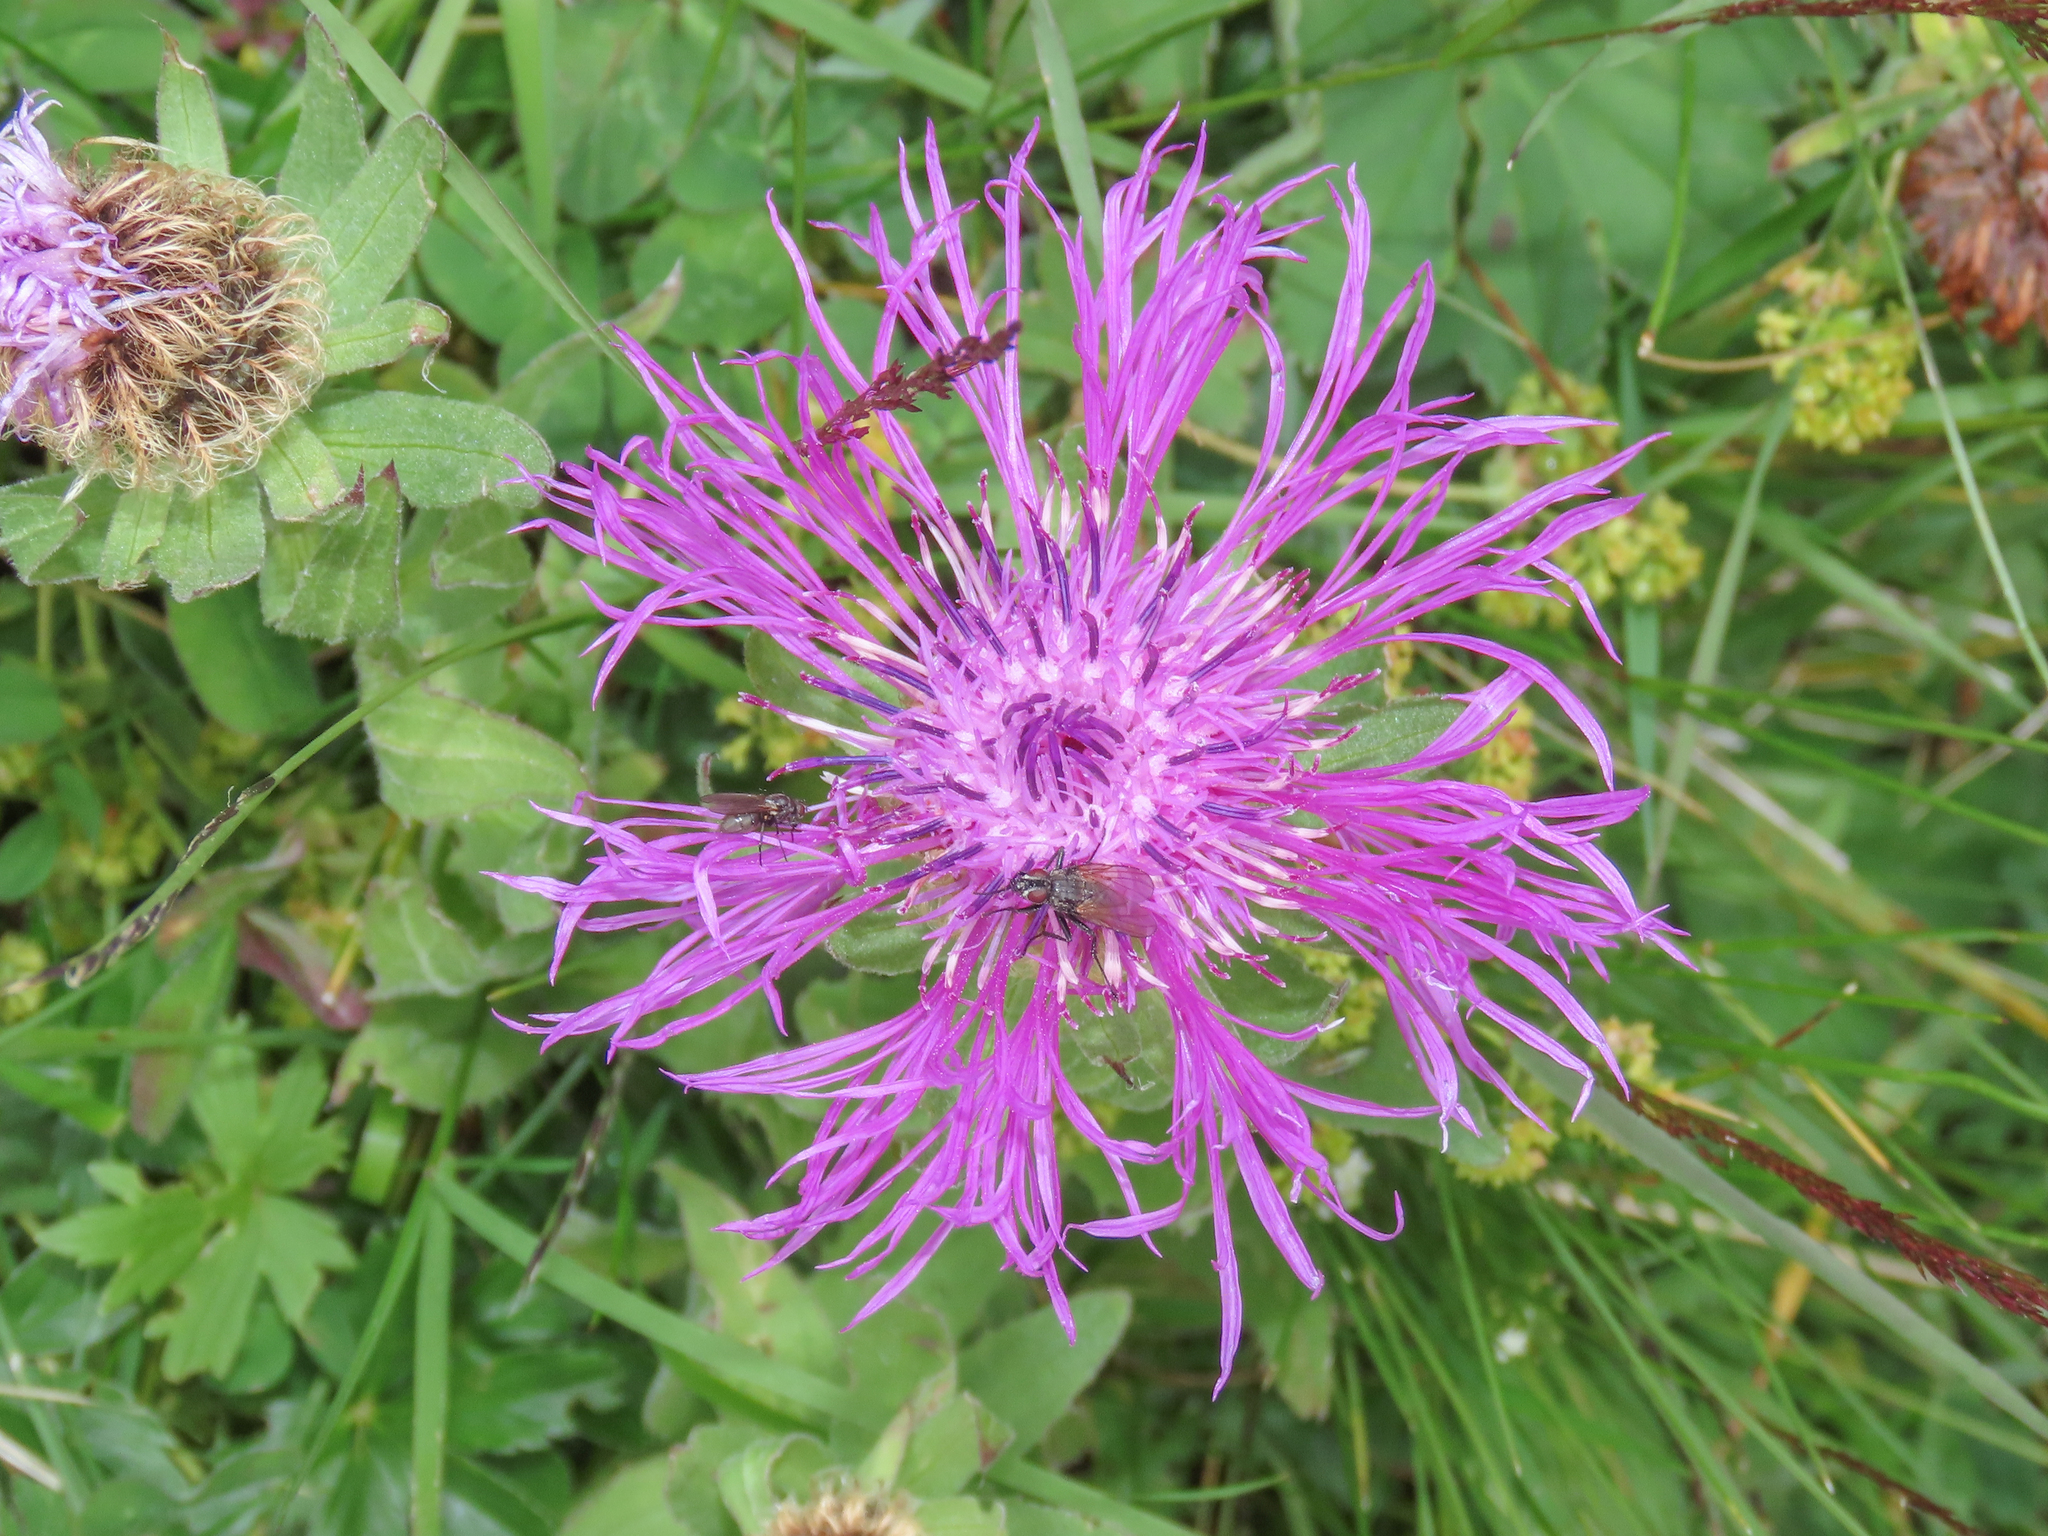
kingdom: Plantae
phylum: Tracheophyta
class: Magnoliopsida
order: Asterales
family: Asteraceae
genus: Centaurea
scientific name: Centaurea nervosa
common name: Singleflower knapweed
